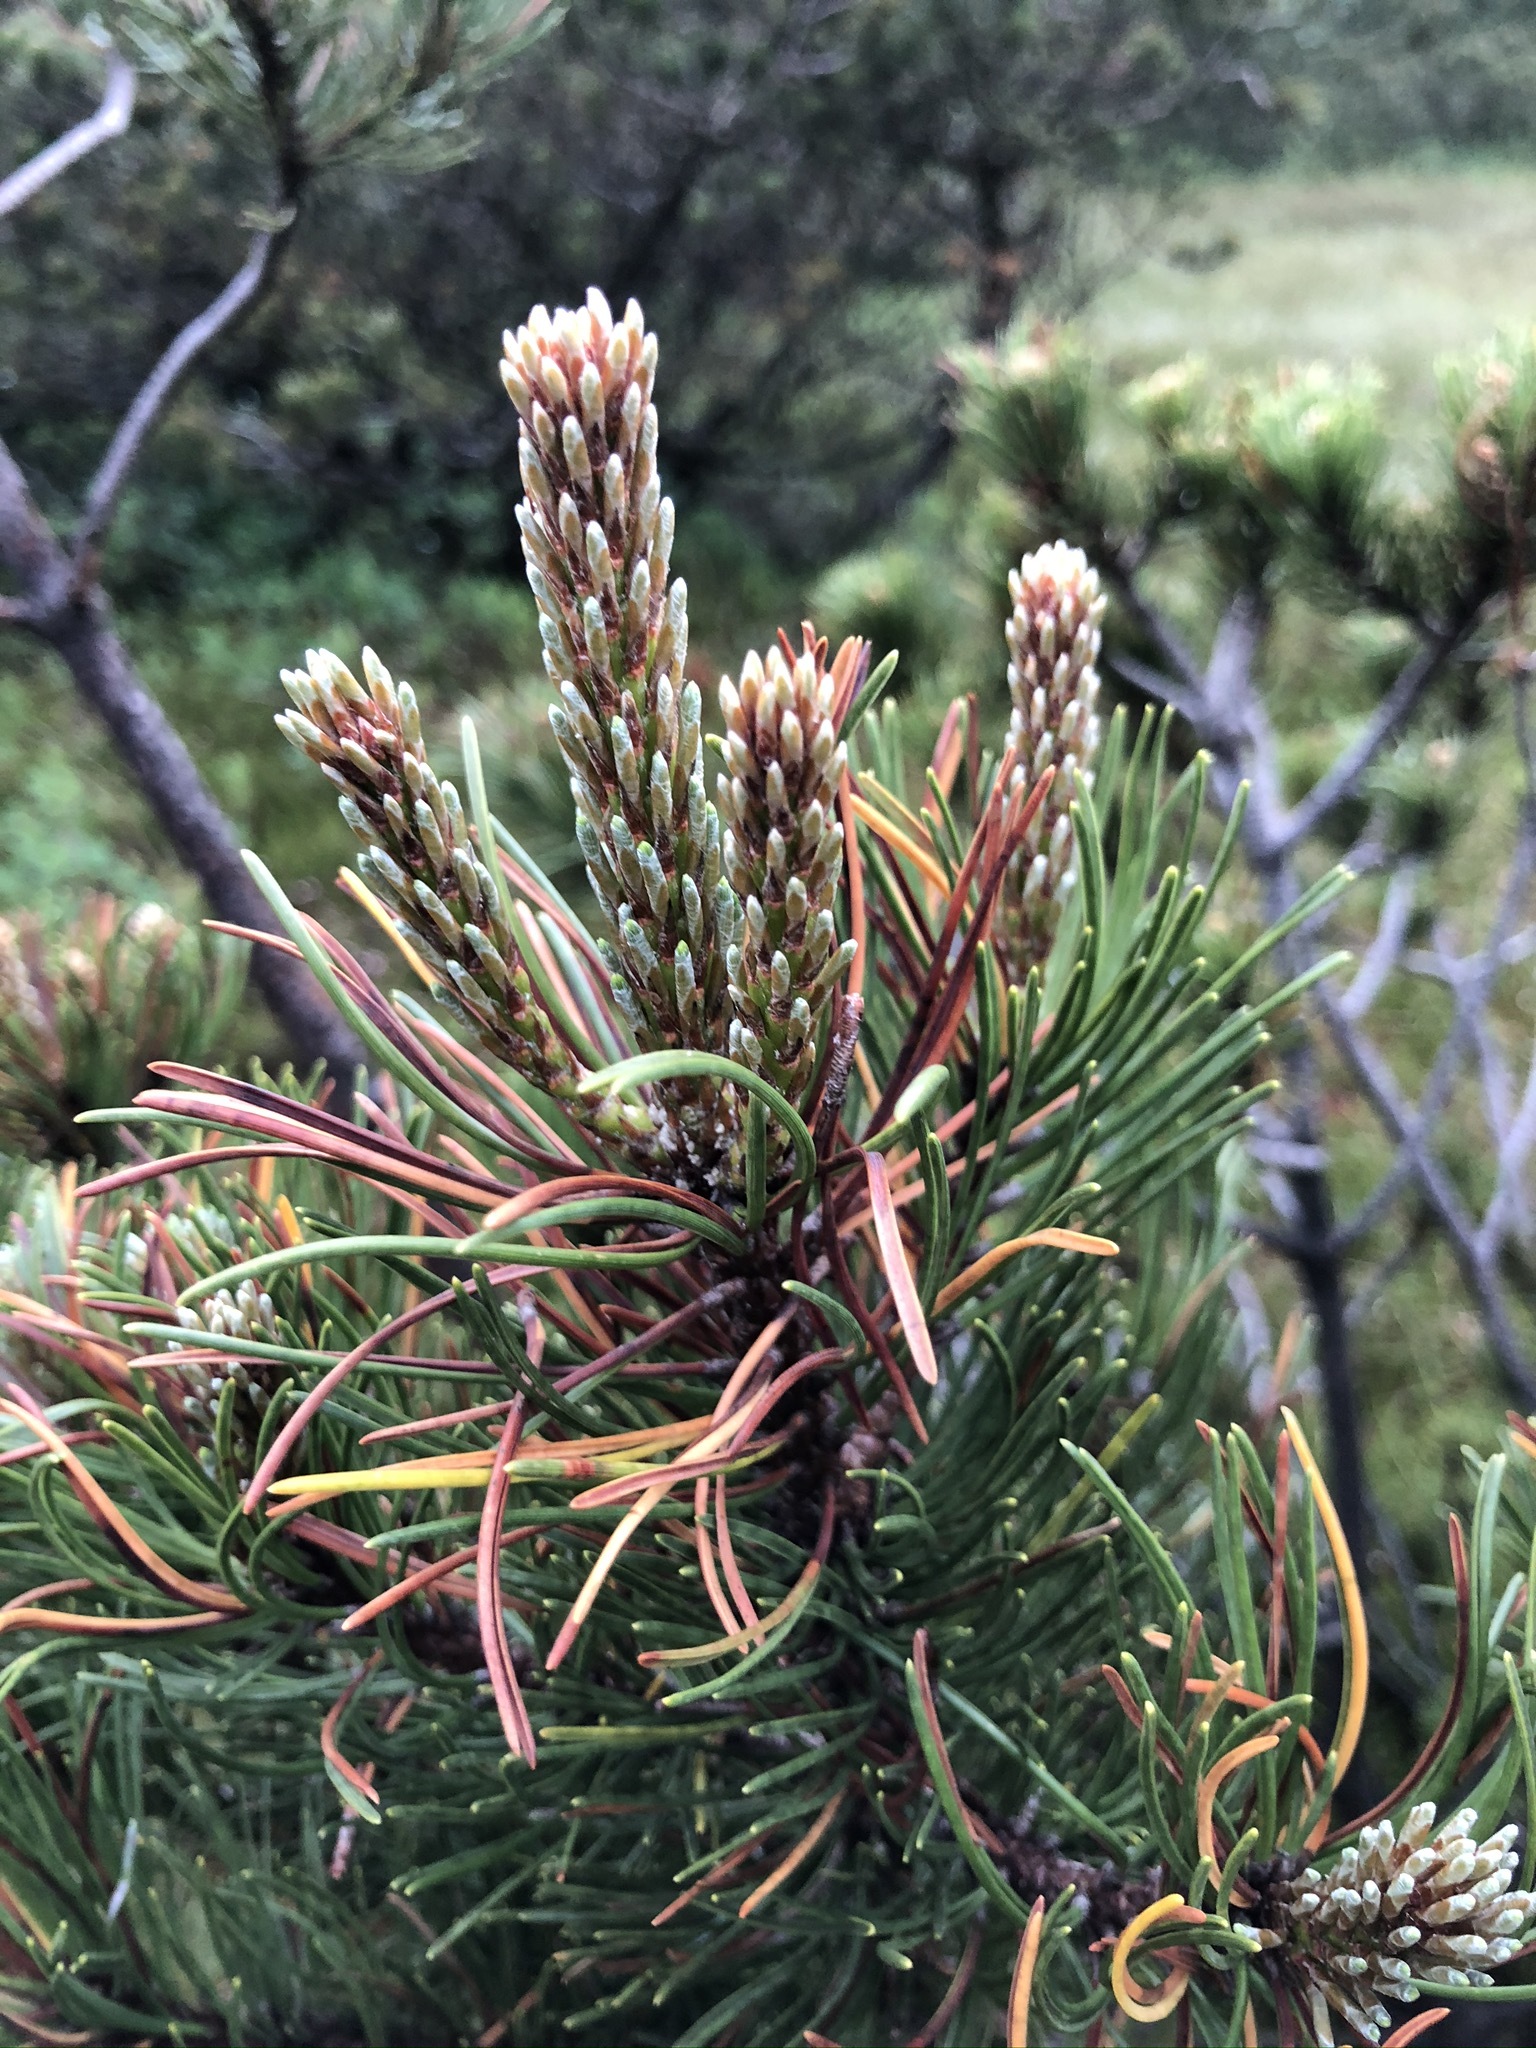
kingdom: Plantae
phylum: Tracheophyta
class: Pinopsida
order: Pinales
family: Pinaceae
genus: Pinus
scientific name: Pinus mugo
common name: Mugo pine
